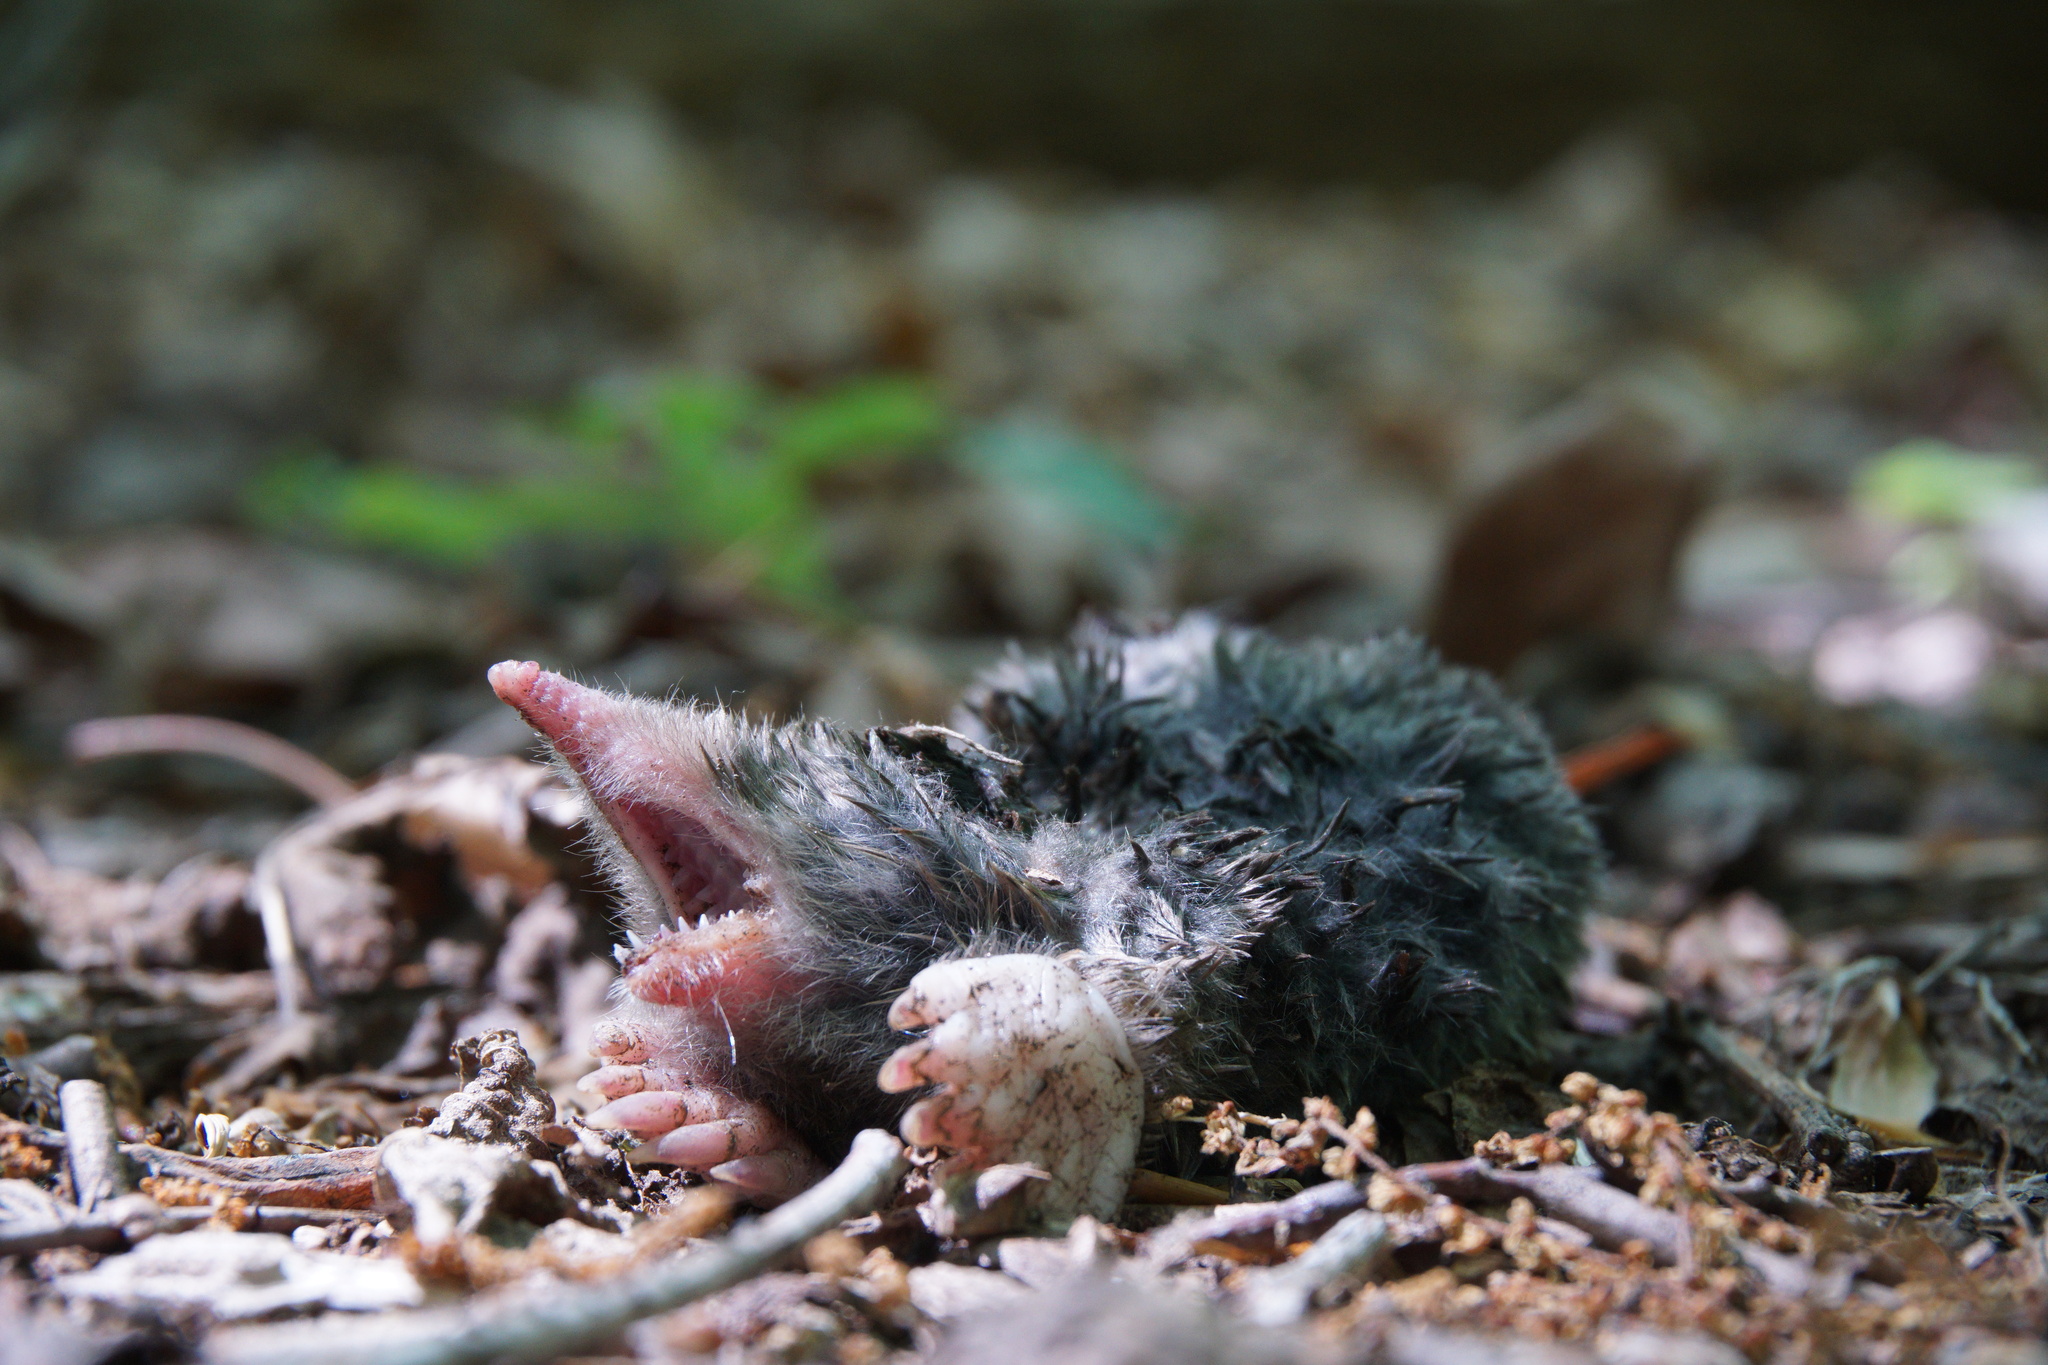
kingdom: Animalia
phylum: Chordata
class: Mammalia
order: Soricomorpha
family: Talpidae
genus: Scalopus
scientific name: Scalopus aquaticus
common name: Eastern mole
